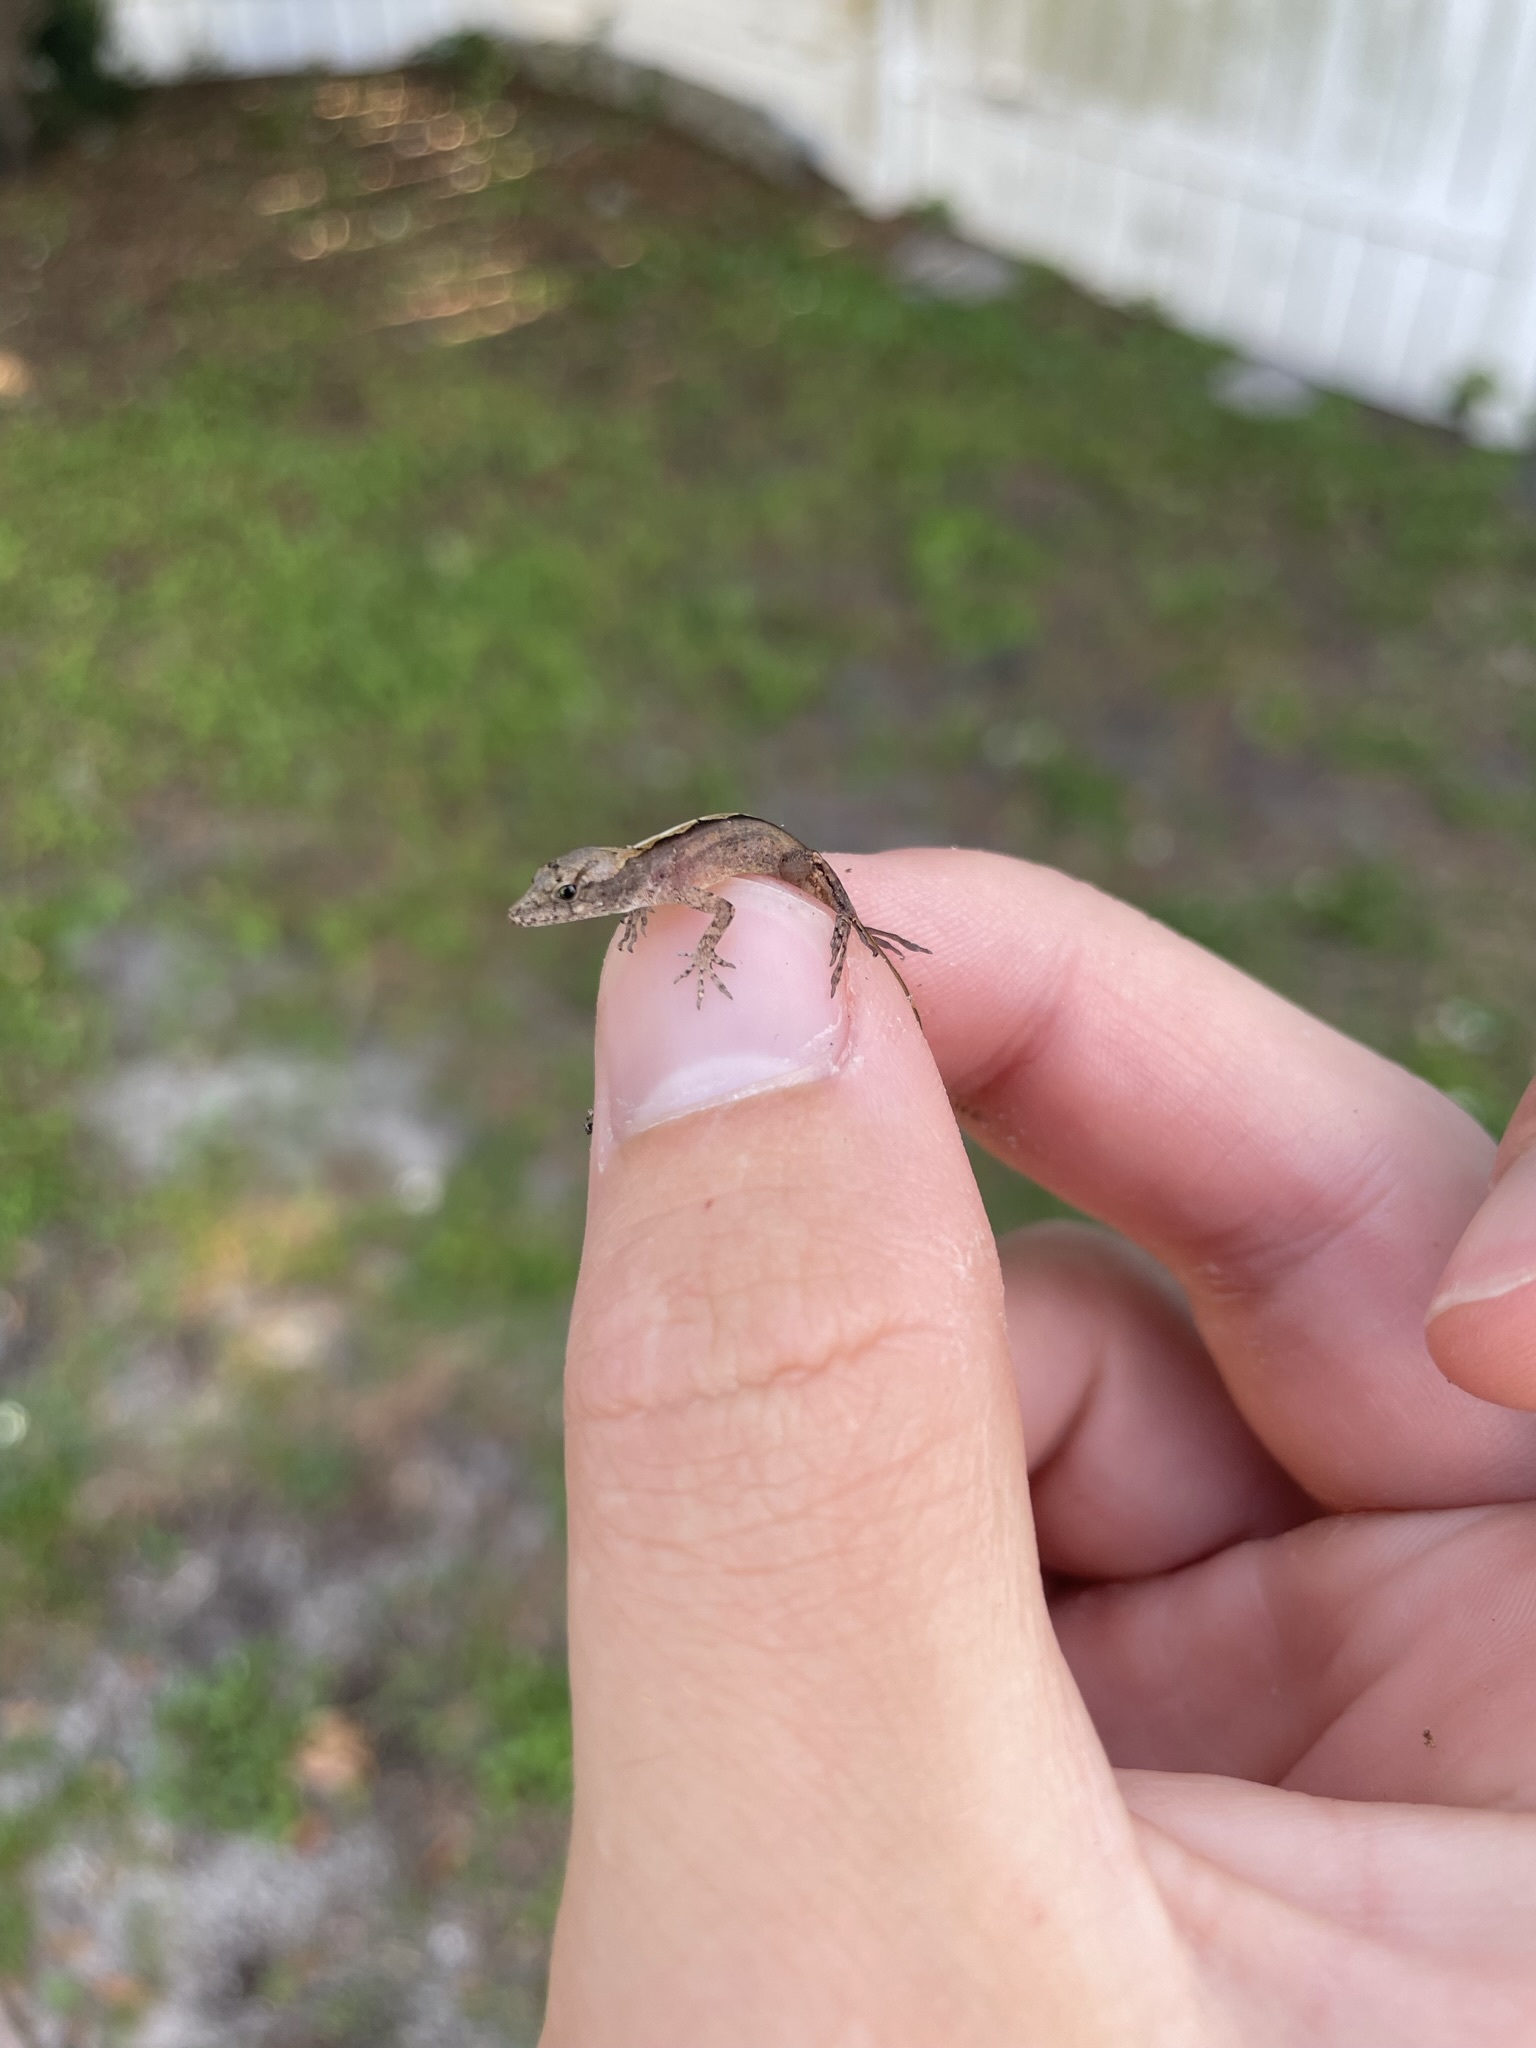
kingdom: Animalia
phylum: Chordata
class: Squamata
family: Dactyloidae
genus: Anolis
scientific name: Anolis sagrei
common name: Brown anole
